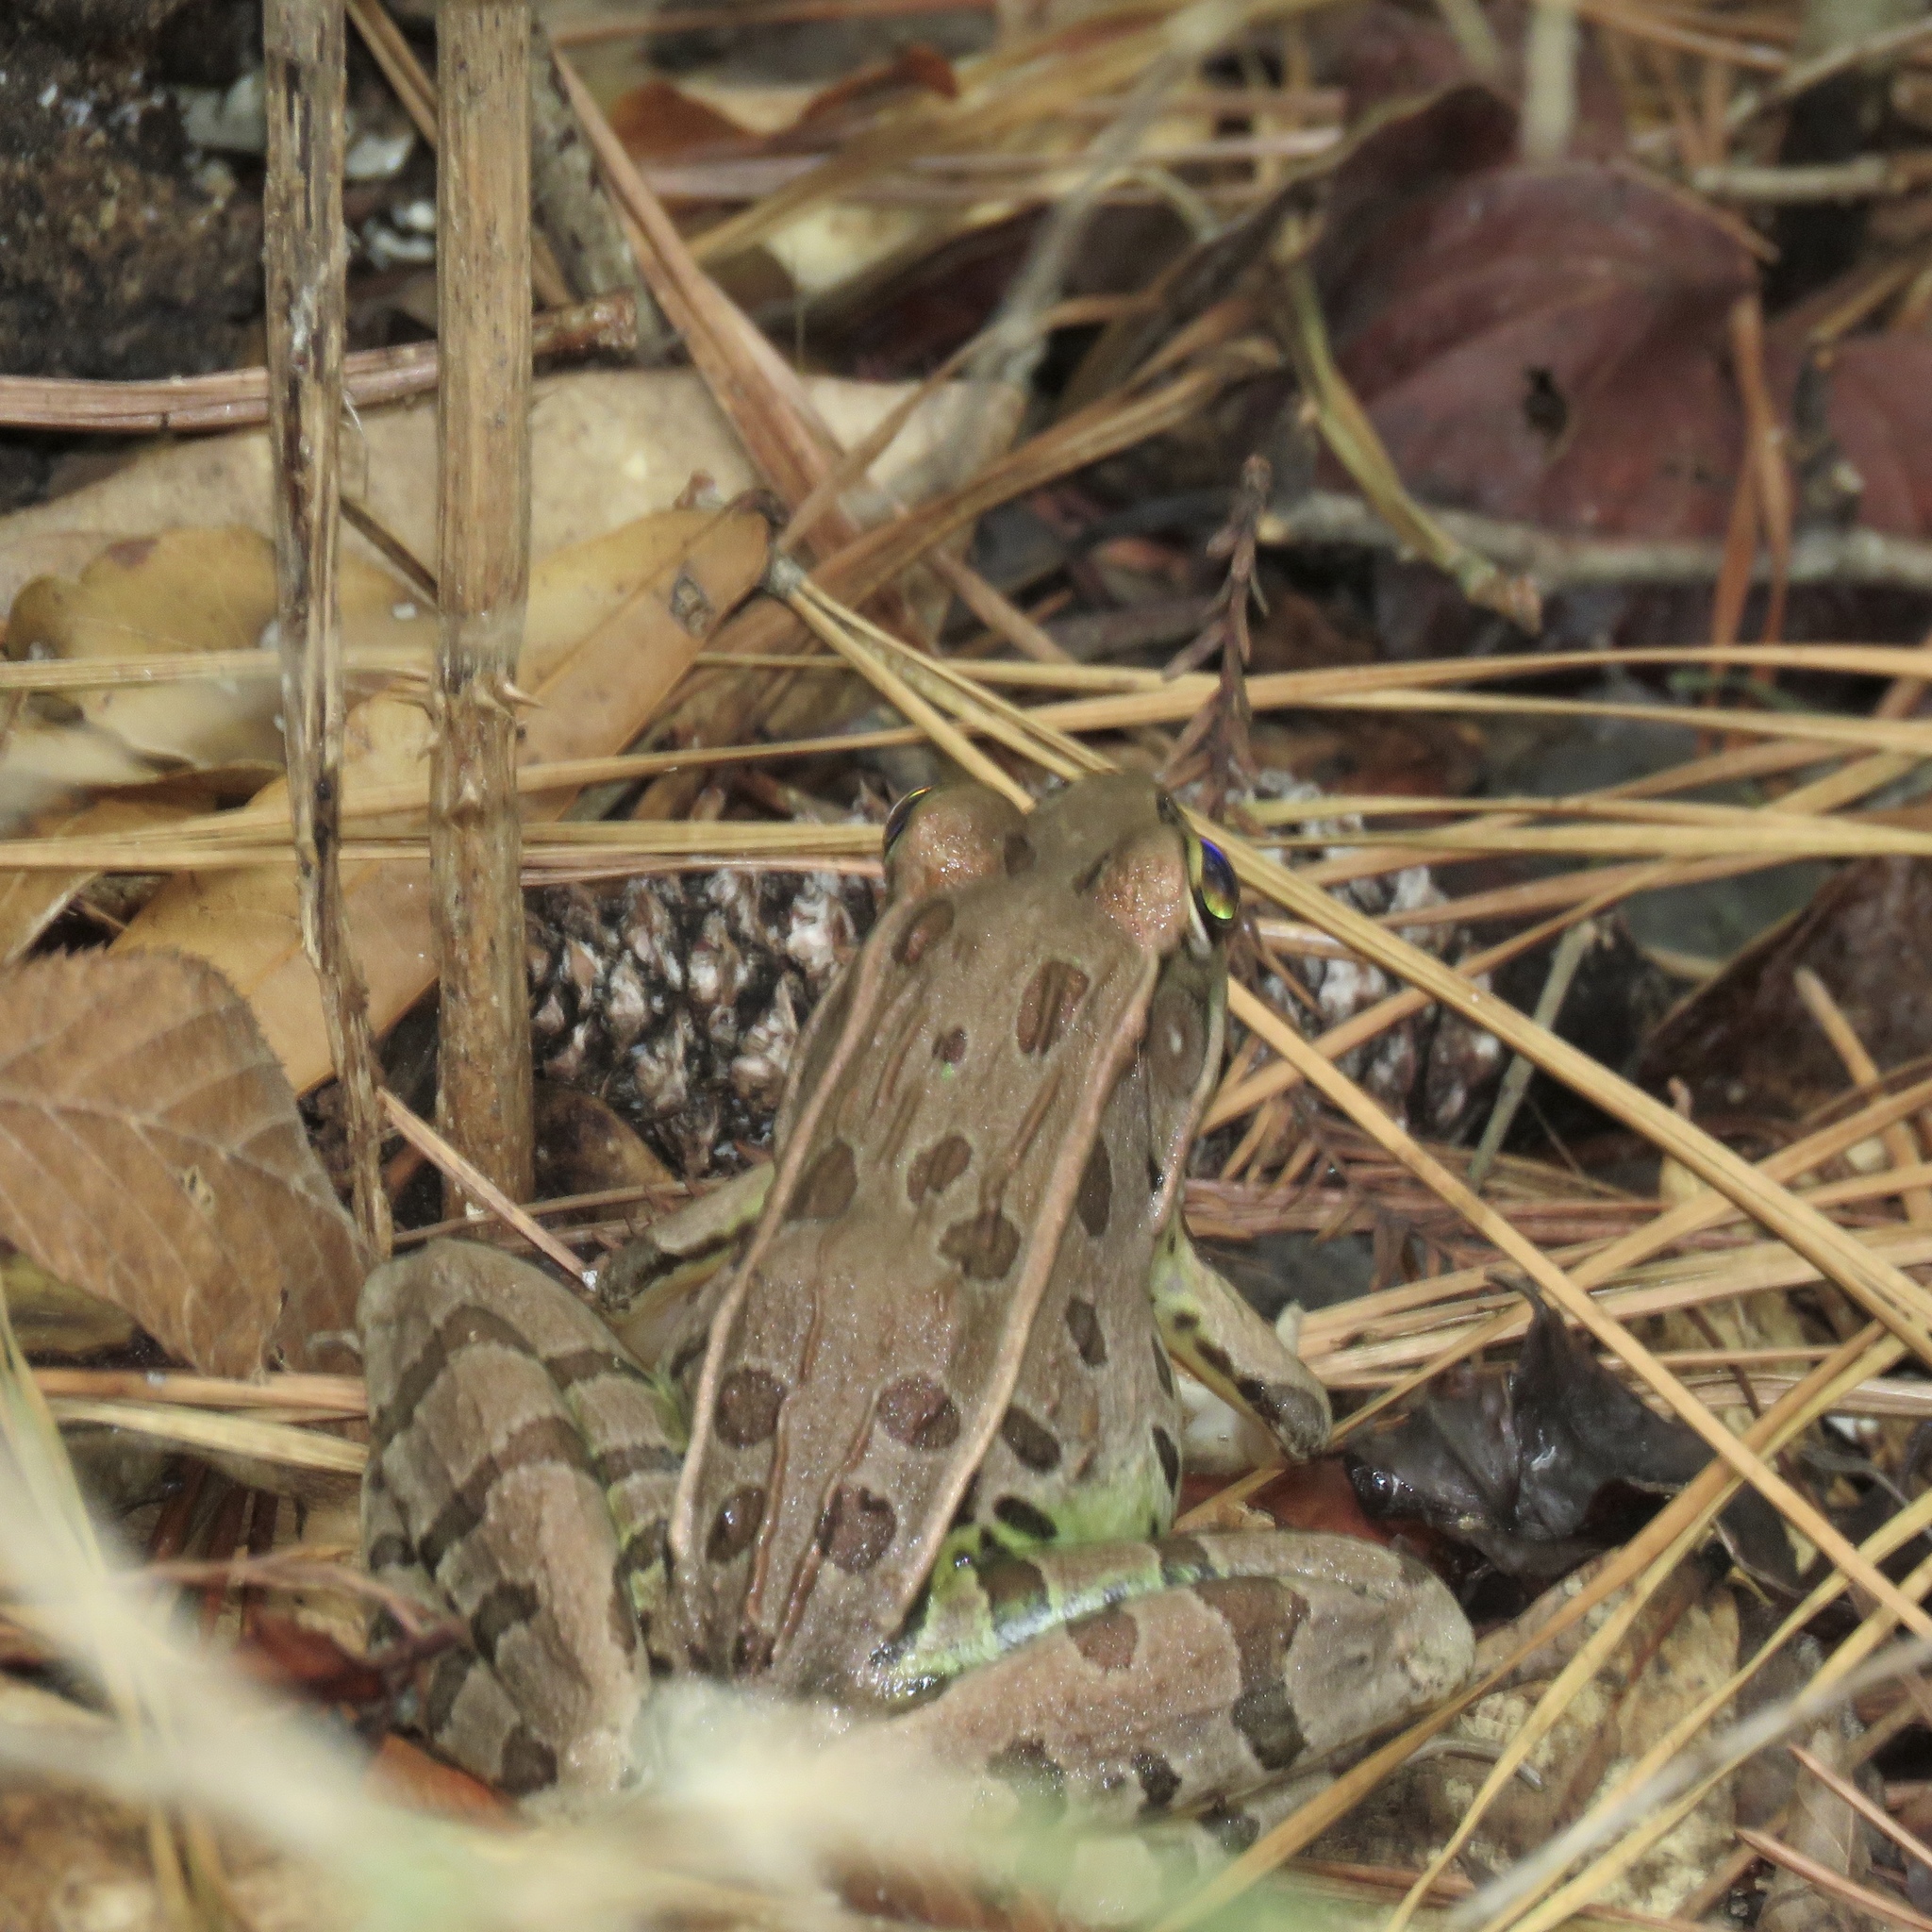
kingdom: Animalia
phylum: Chordata
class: Amphibia
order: Anura
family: Ranidae
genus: Lithobates
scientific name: Lithobates sphenocephalus
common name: Southern leopard frog
